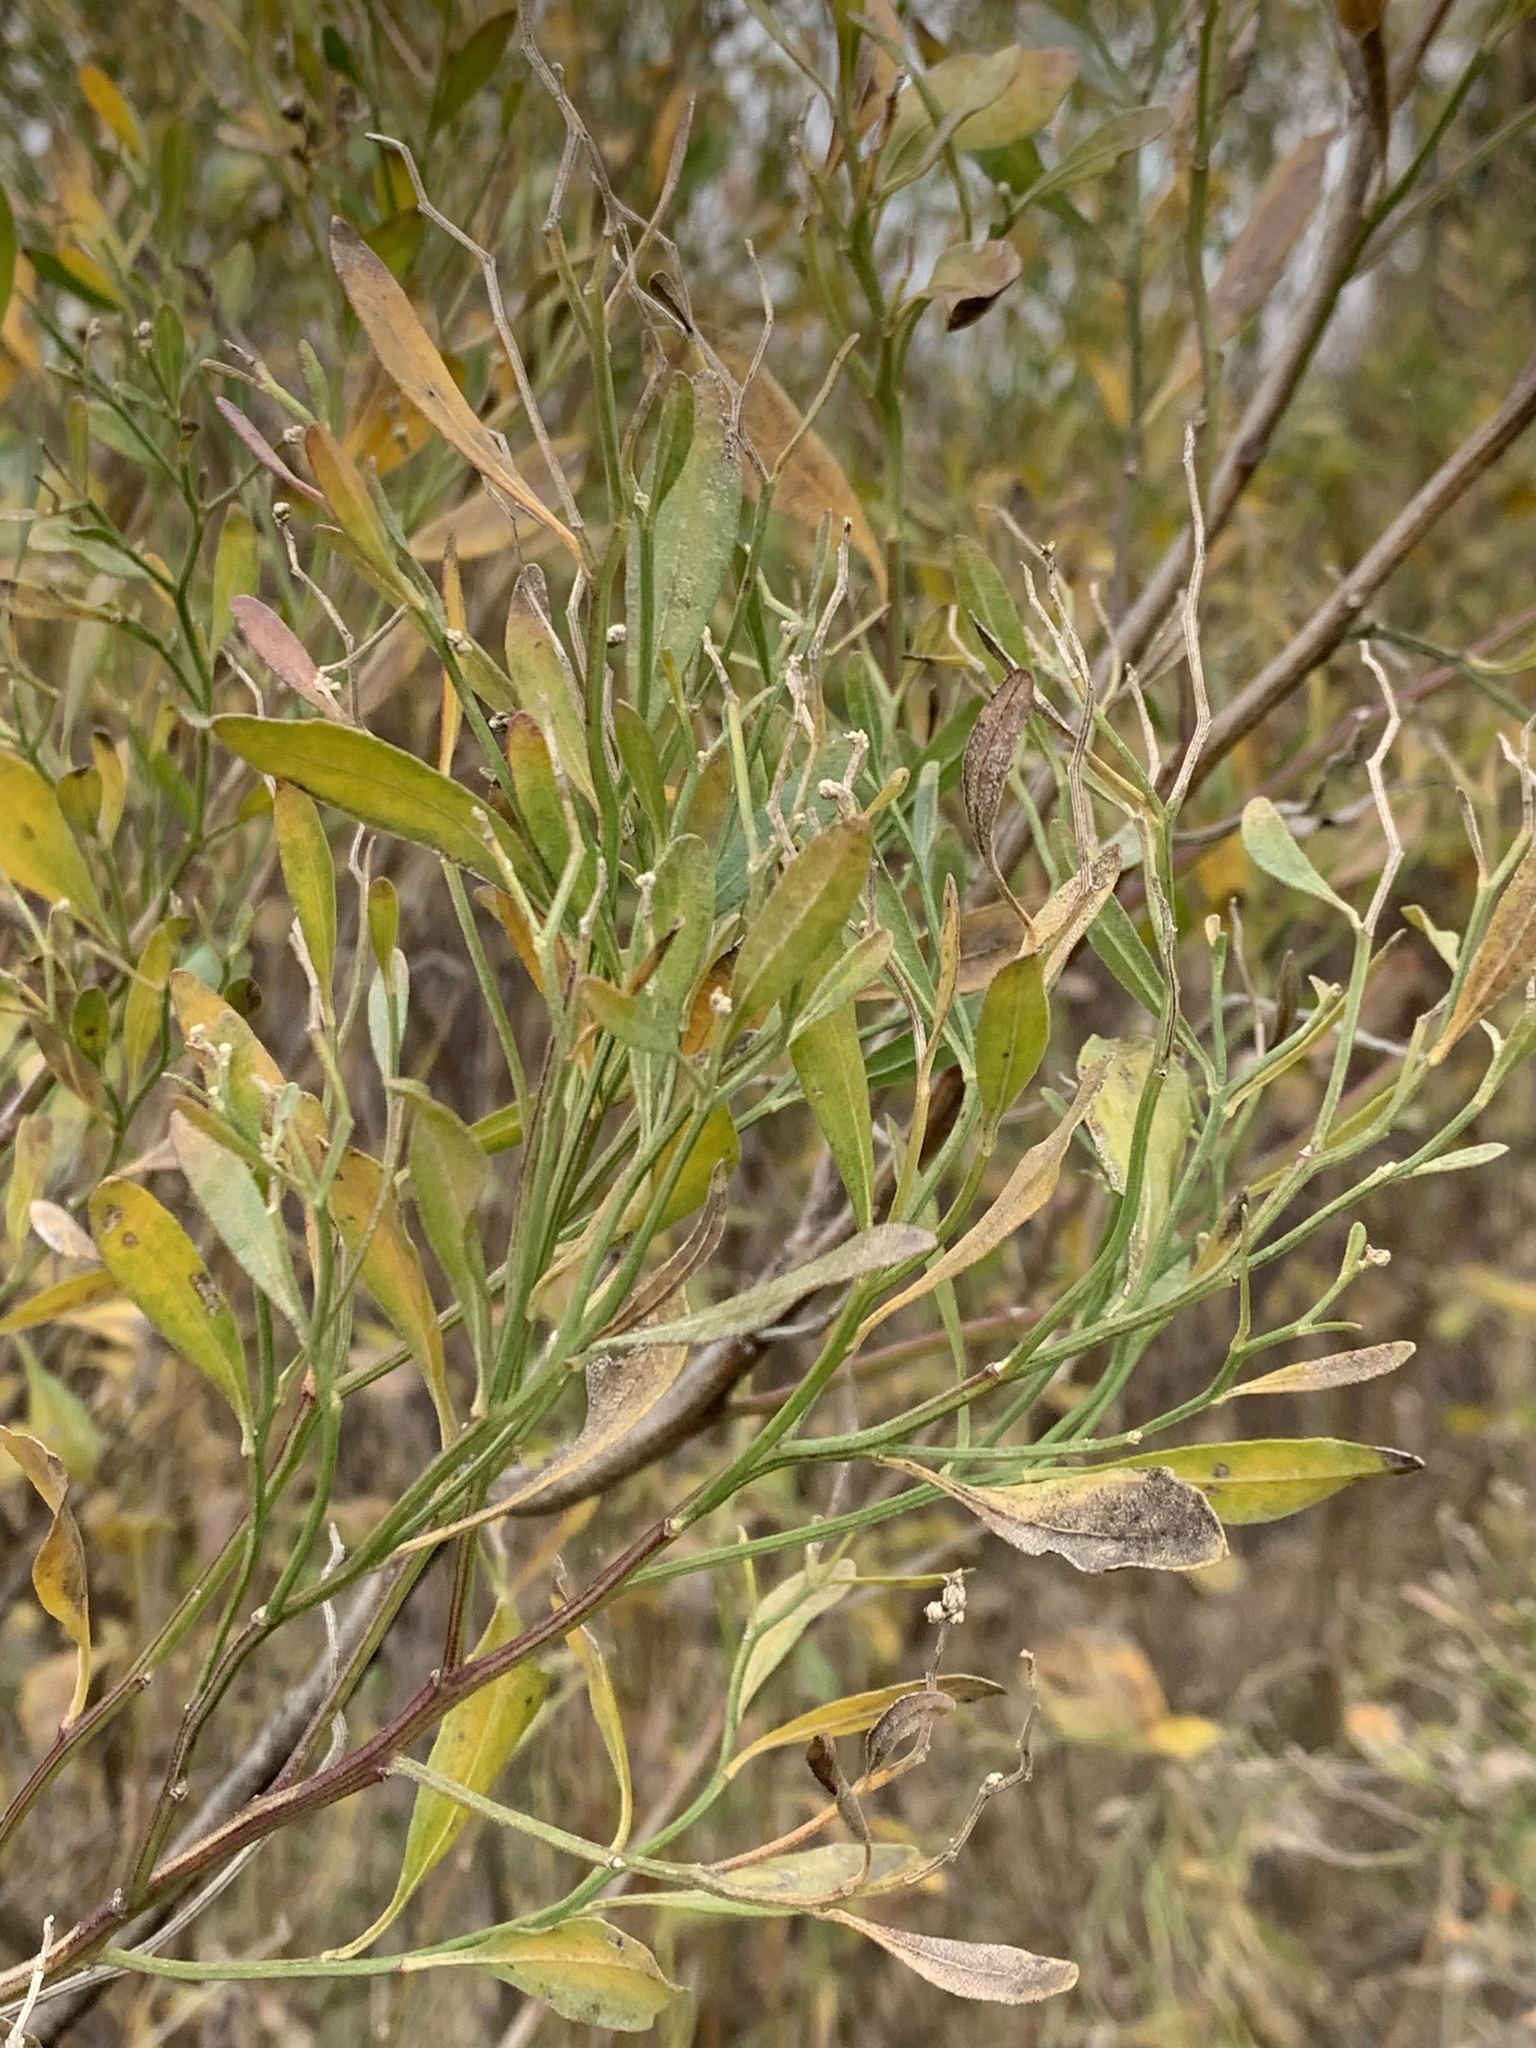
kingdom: Plantae
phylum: Tracheophyta
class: Magnoliopsida
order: Asterales
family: Asteraceae
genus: Baccharis
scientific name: Baccharis halimifolia
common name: Eastern baccharis
